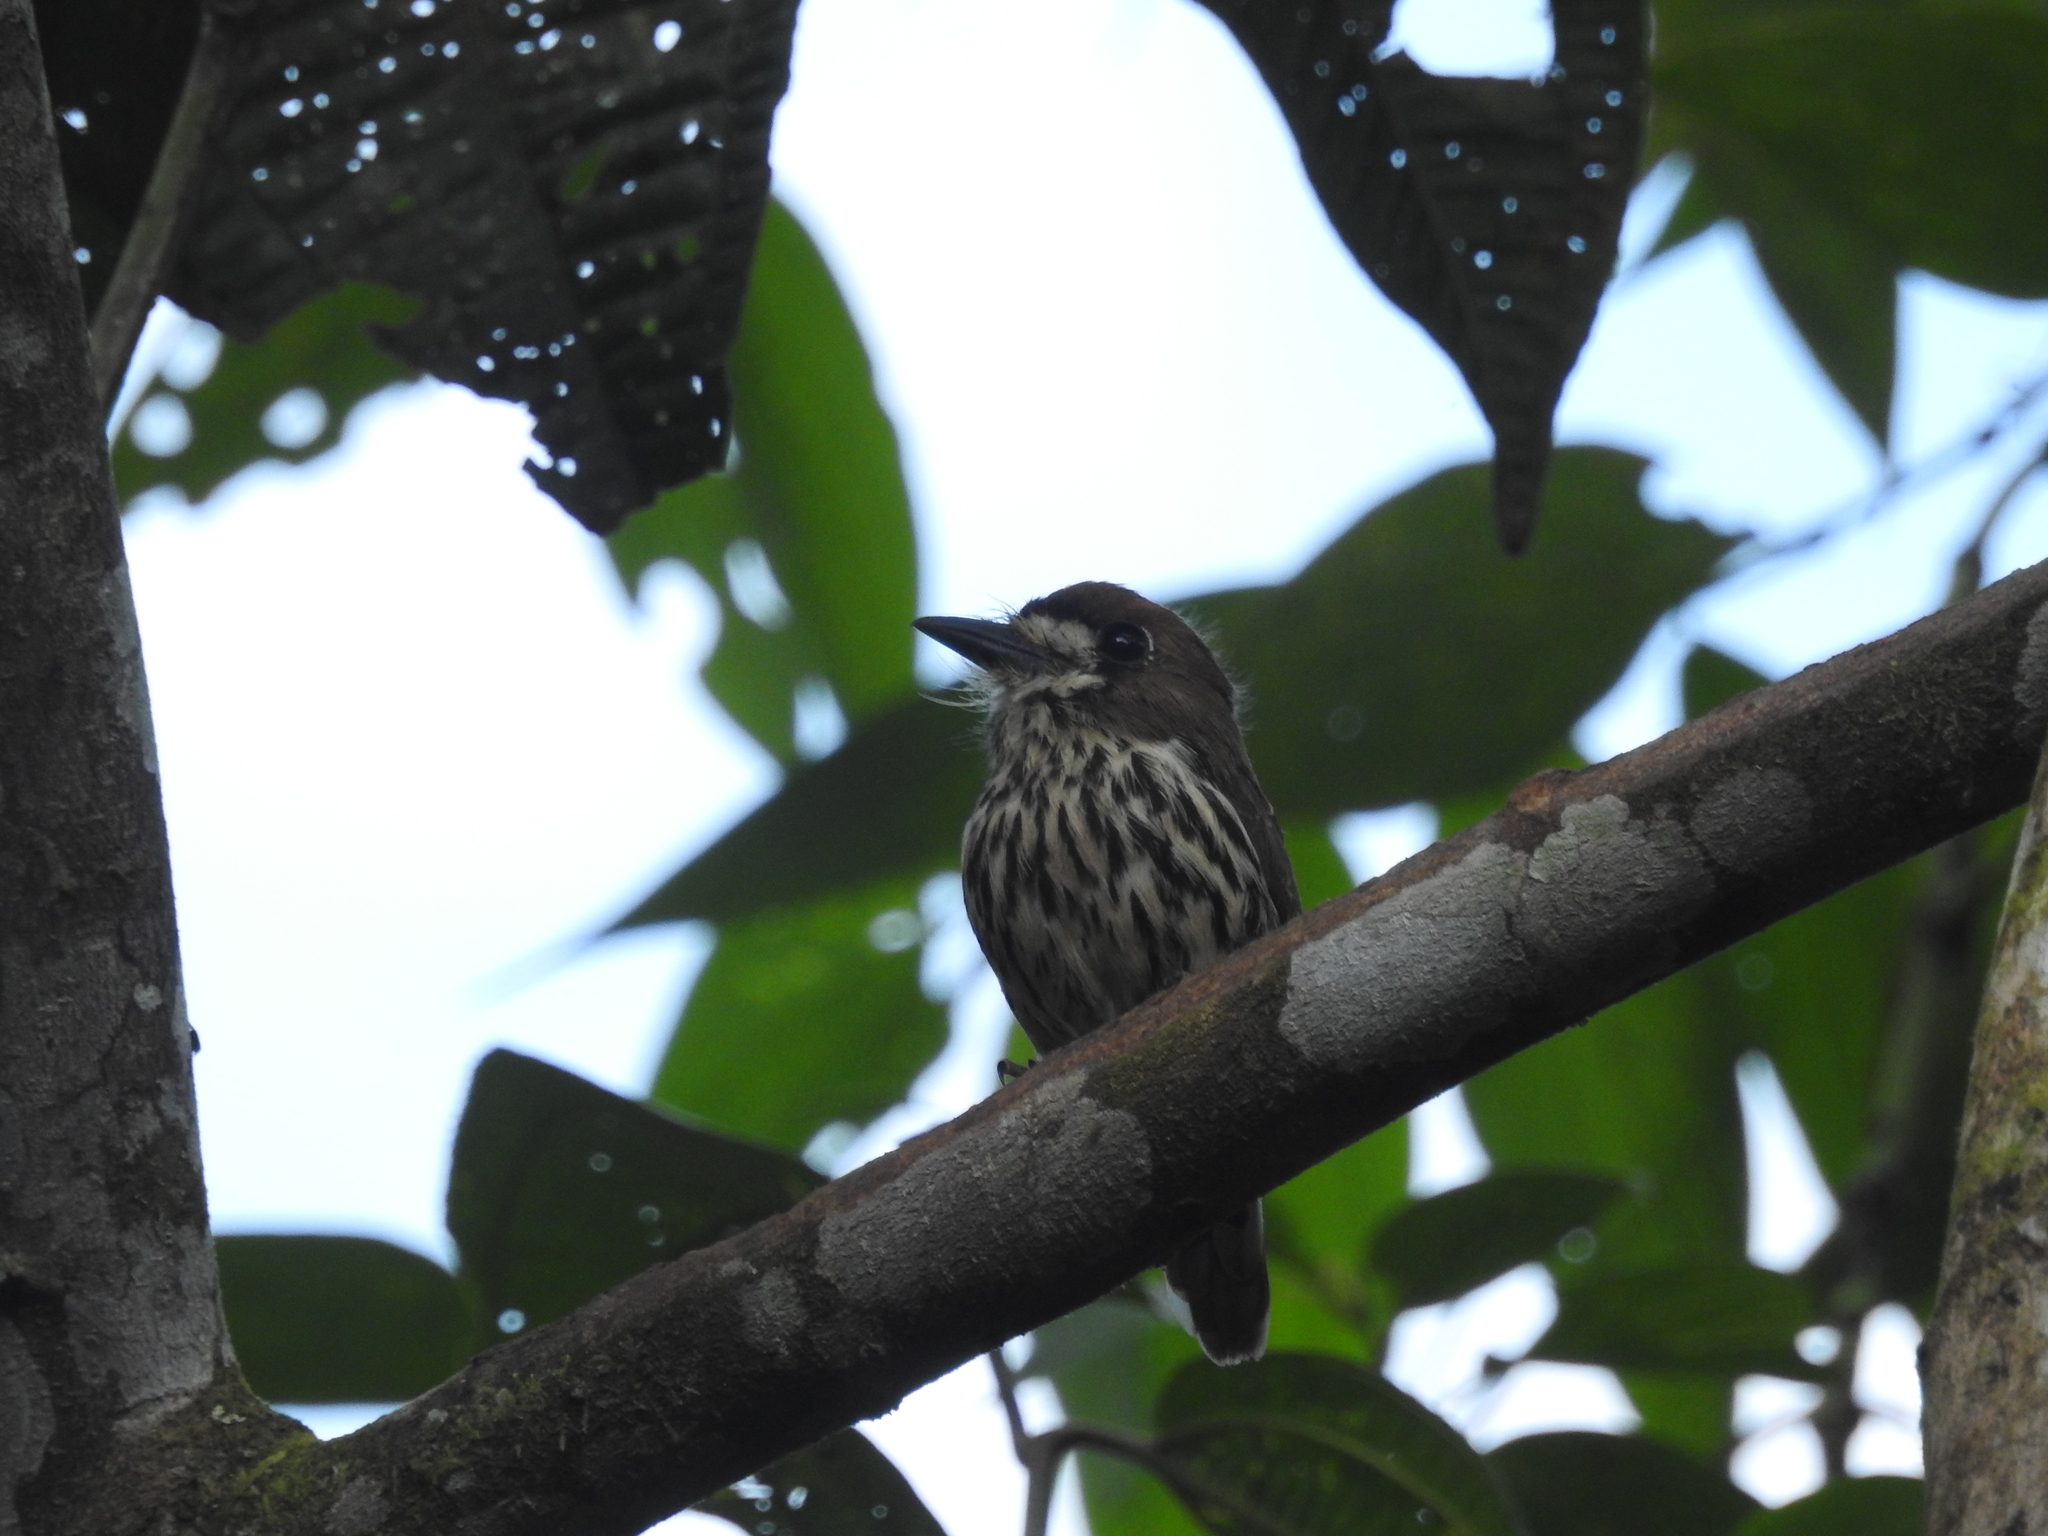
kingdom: Animalia
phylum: Chordata
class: Aves
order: Piciformes
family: Bucconidae
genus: Micromonacha
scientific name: Micromonacha lanceolata
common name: Lanceolated monklet
